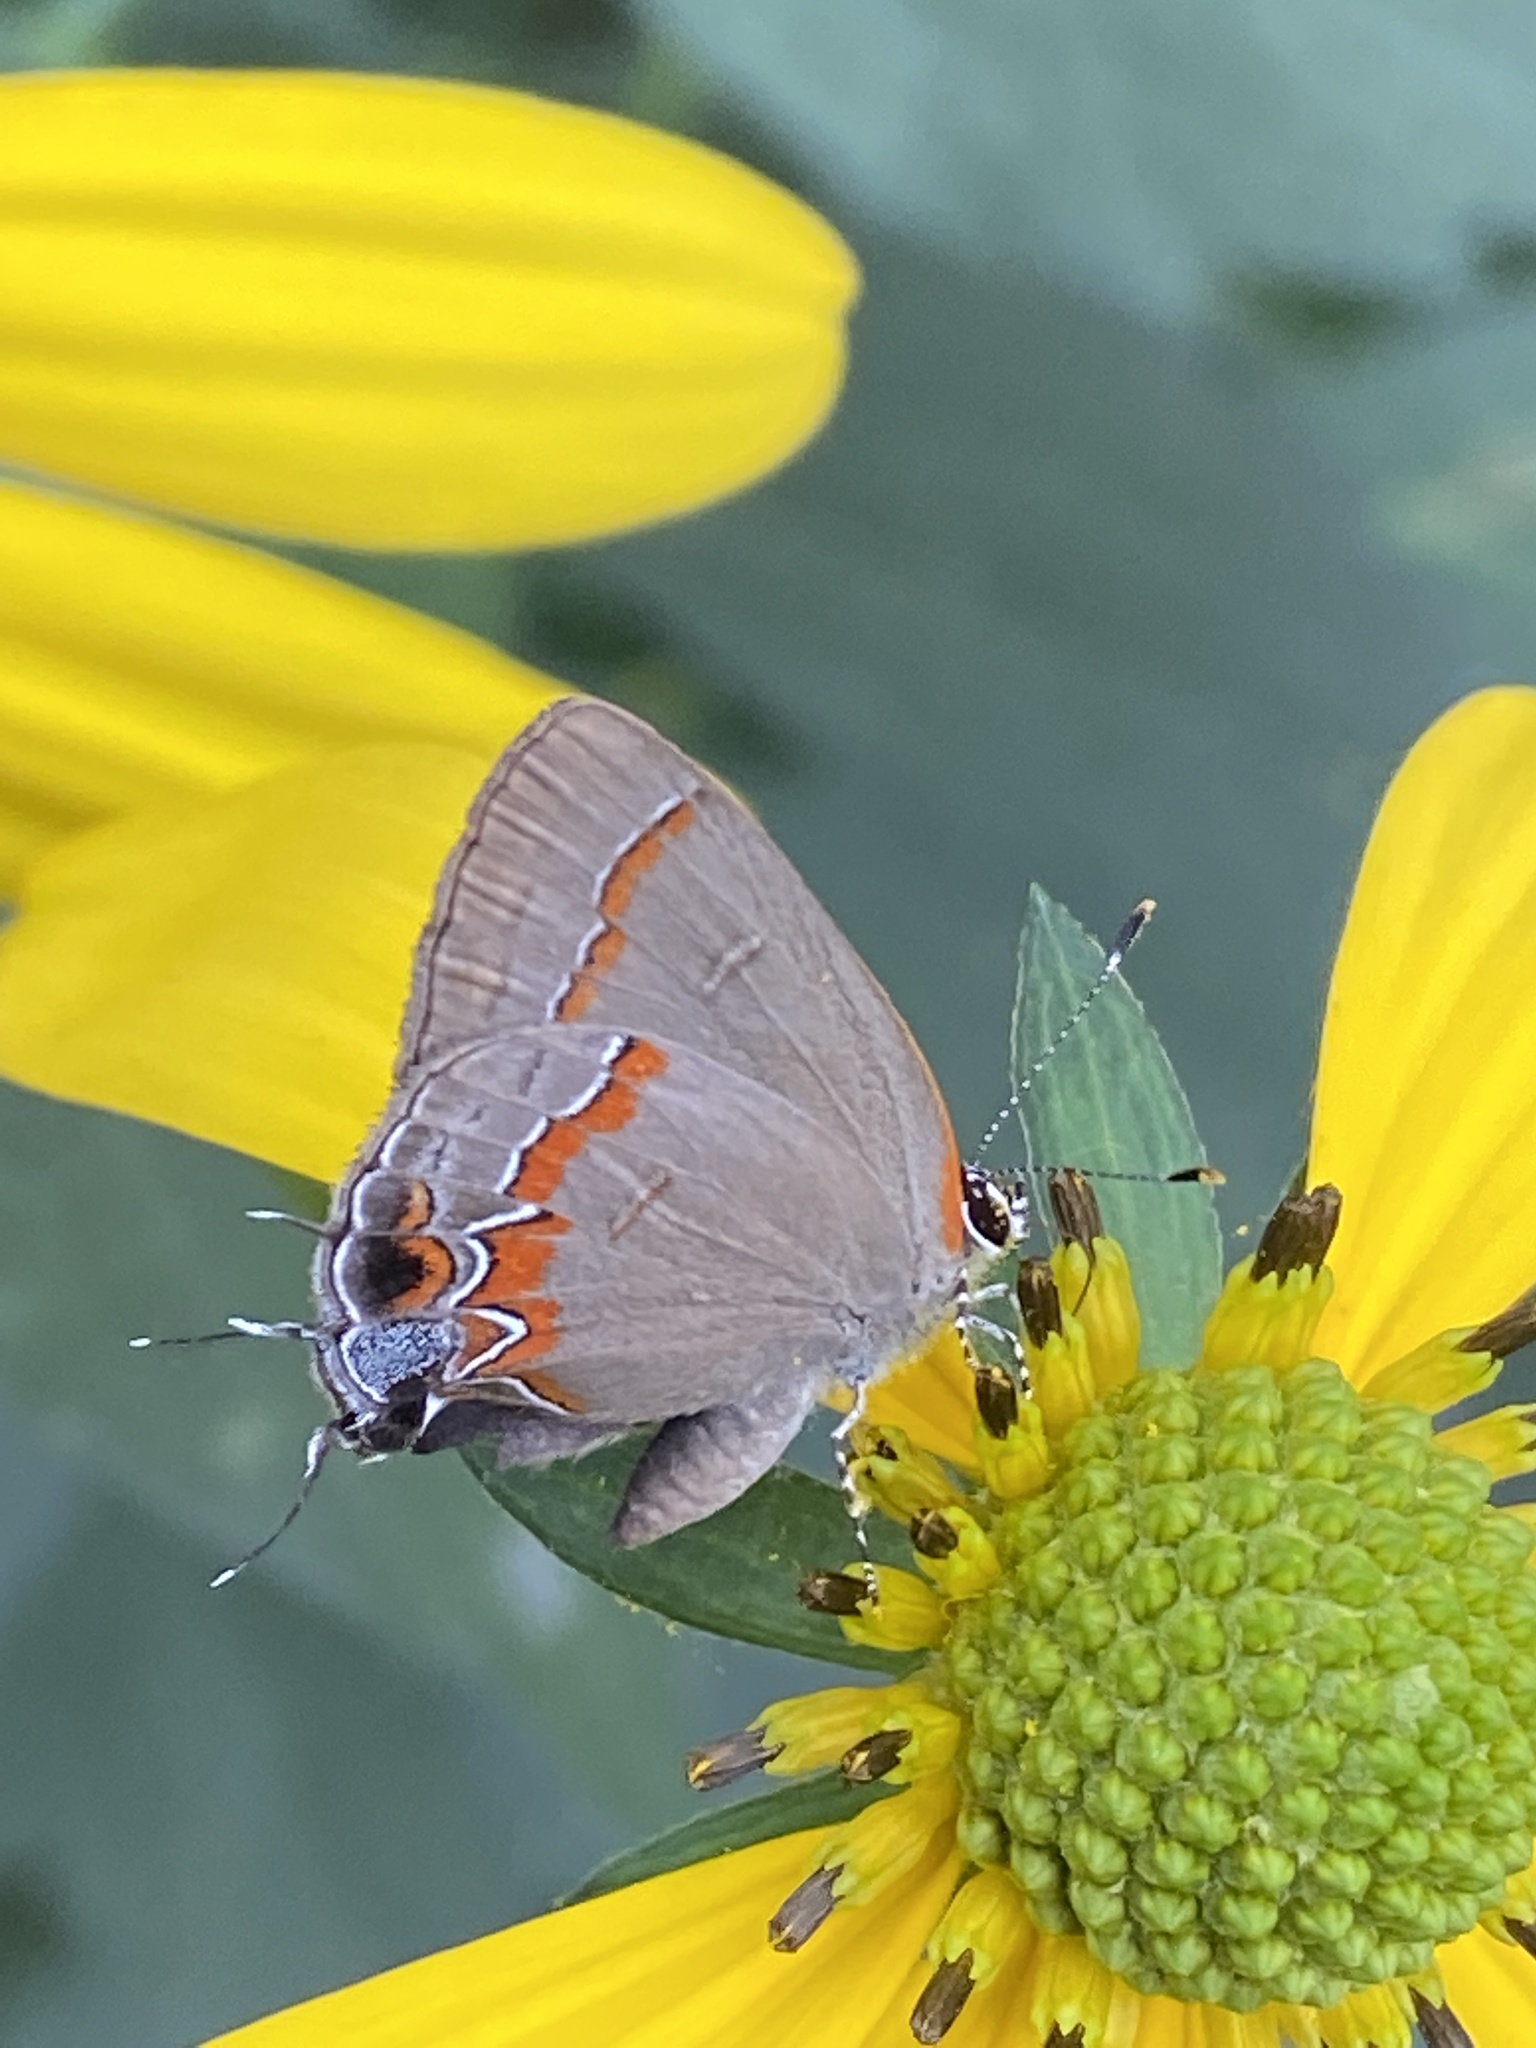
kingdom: Animalia
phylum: Arthropoda
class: Insecta
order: Lepidoptera
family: Lycaenidae
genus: Calycopis
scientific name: Calycopis cecrops
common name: Red-banded hairstreak
